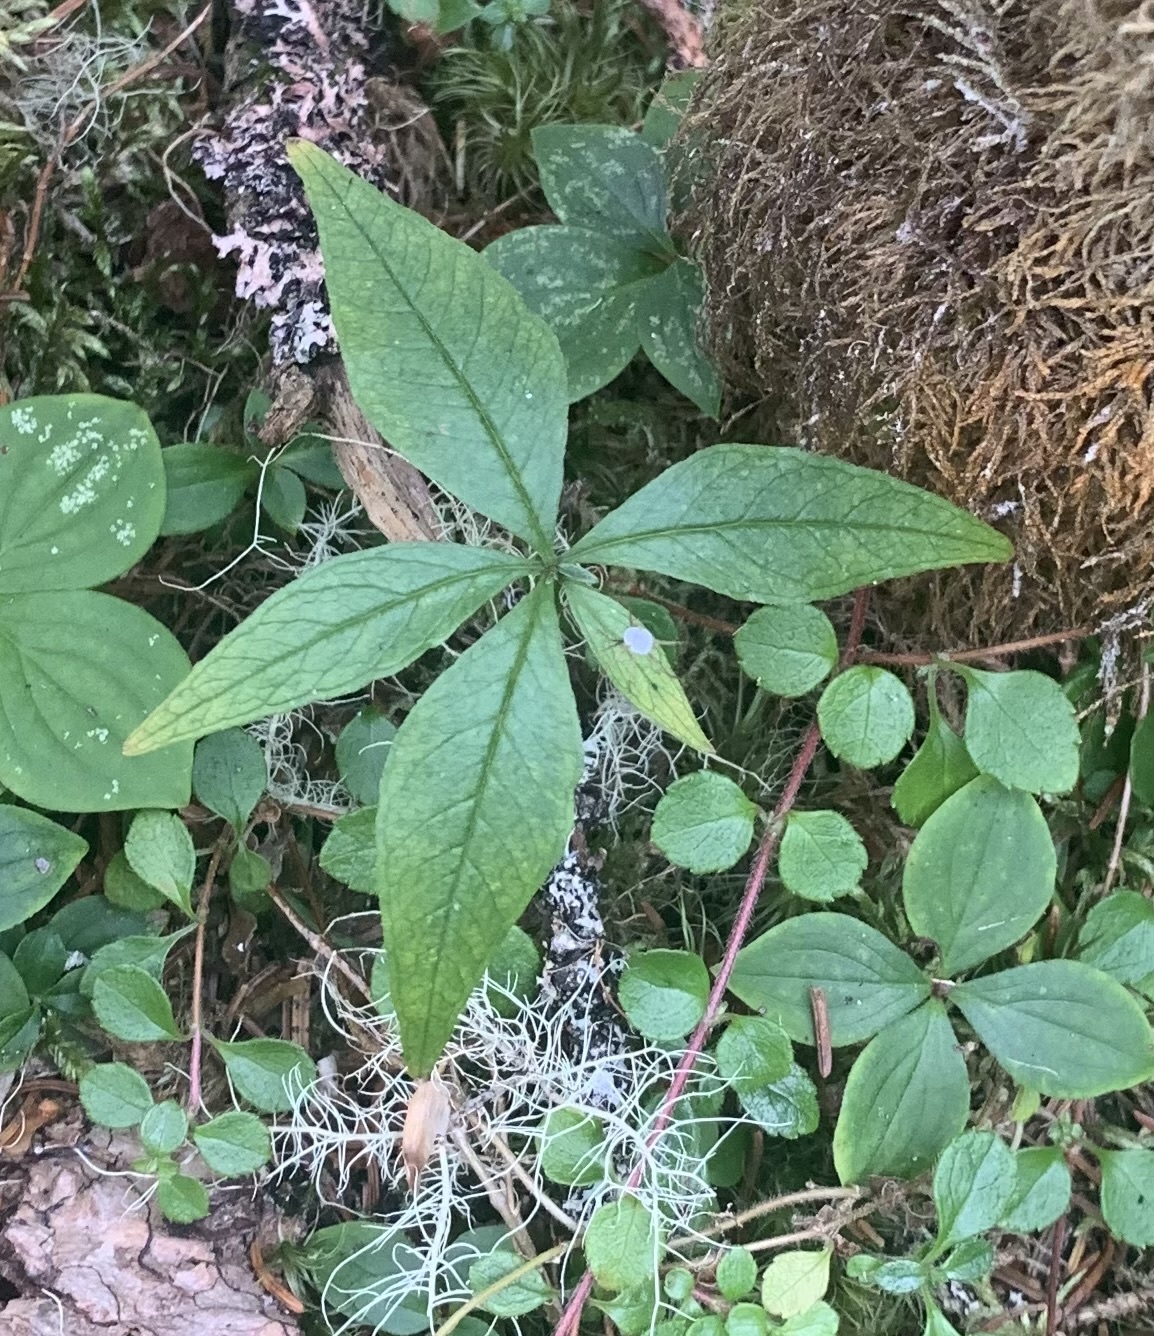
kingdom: Plantae
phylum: Tracheophyta
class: Magnoliopsida
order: Ericales
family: Primulaceae
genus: Lysimachia
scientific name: Lysimachia borealis
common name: American starflower
